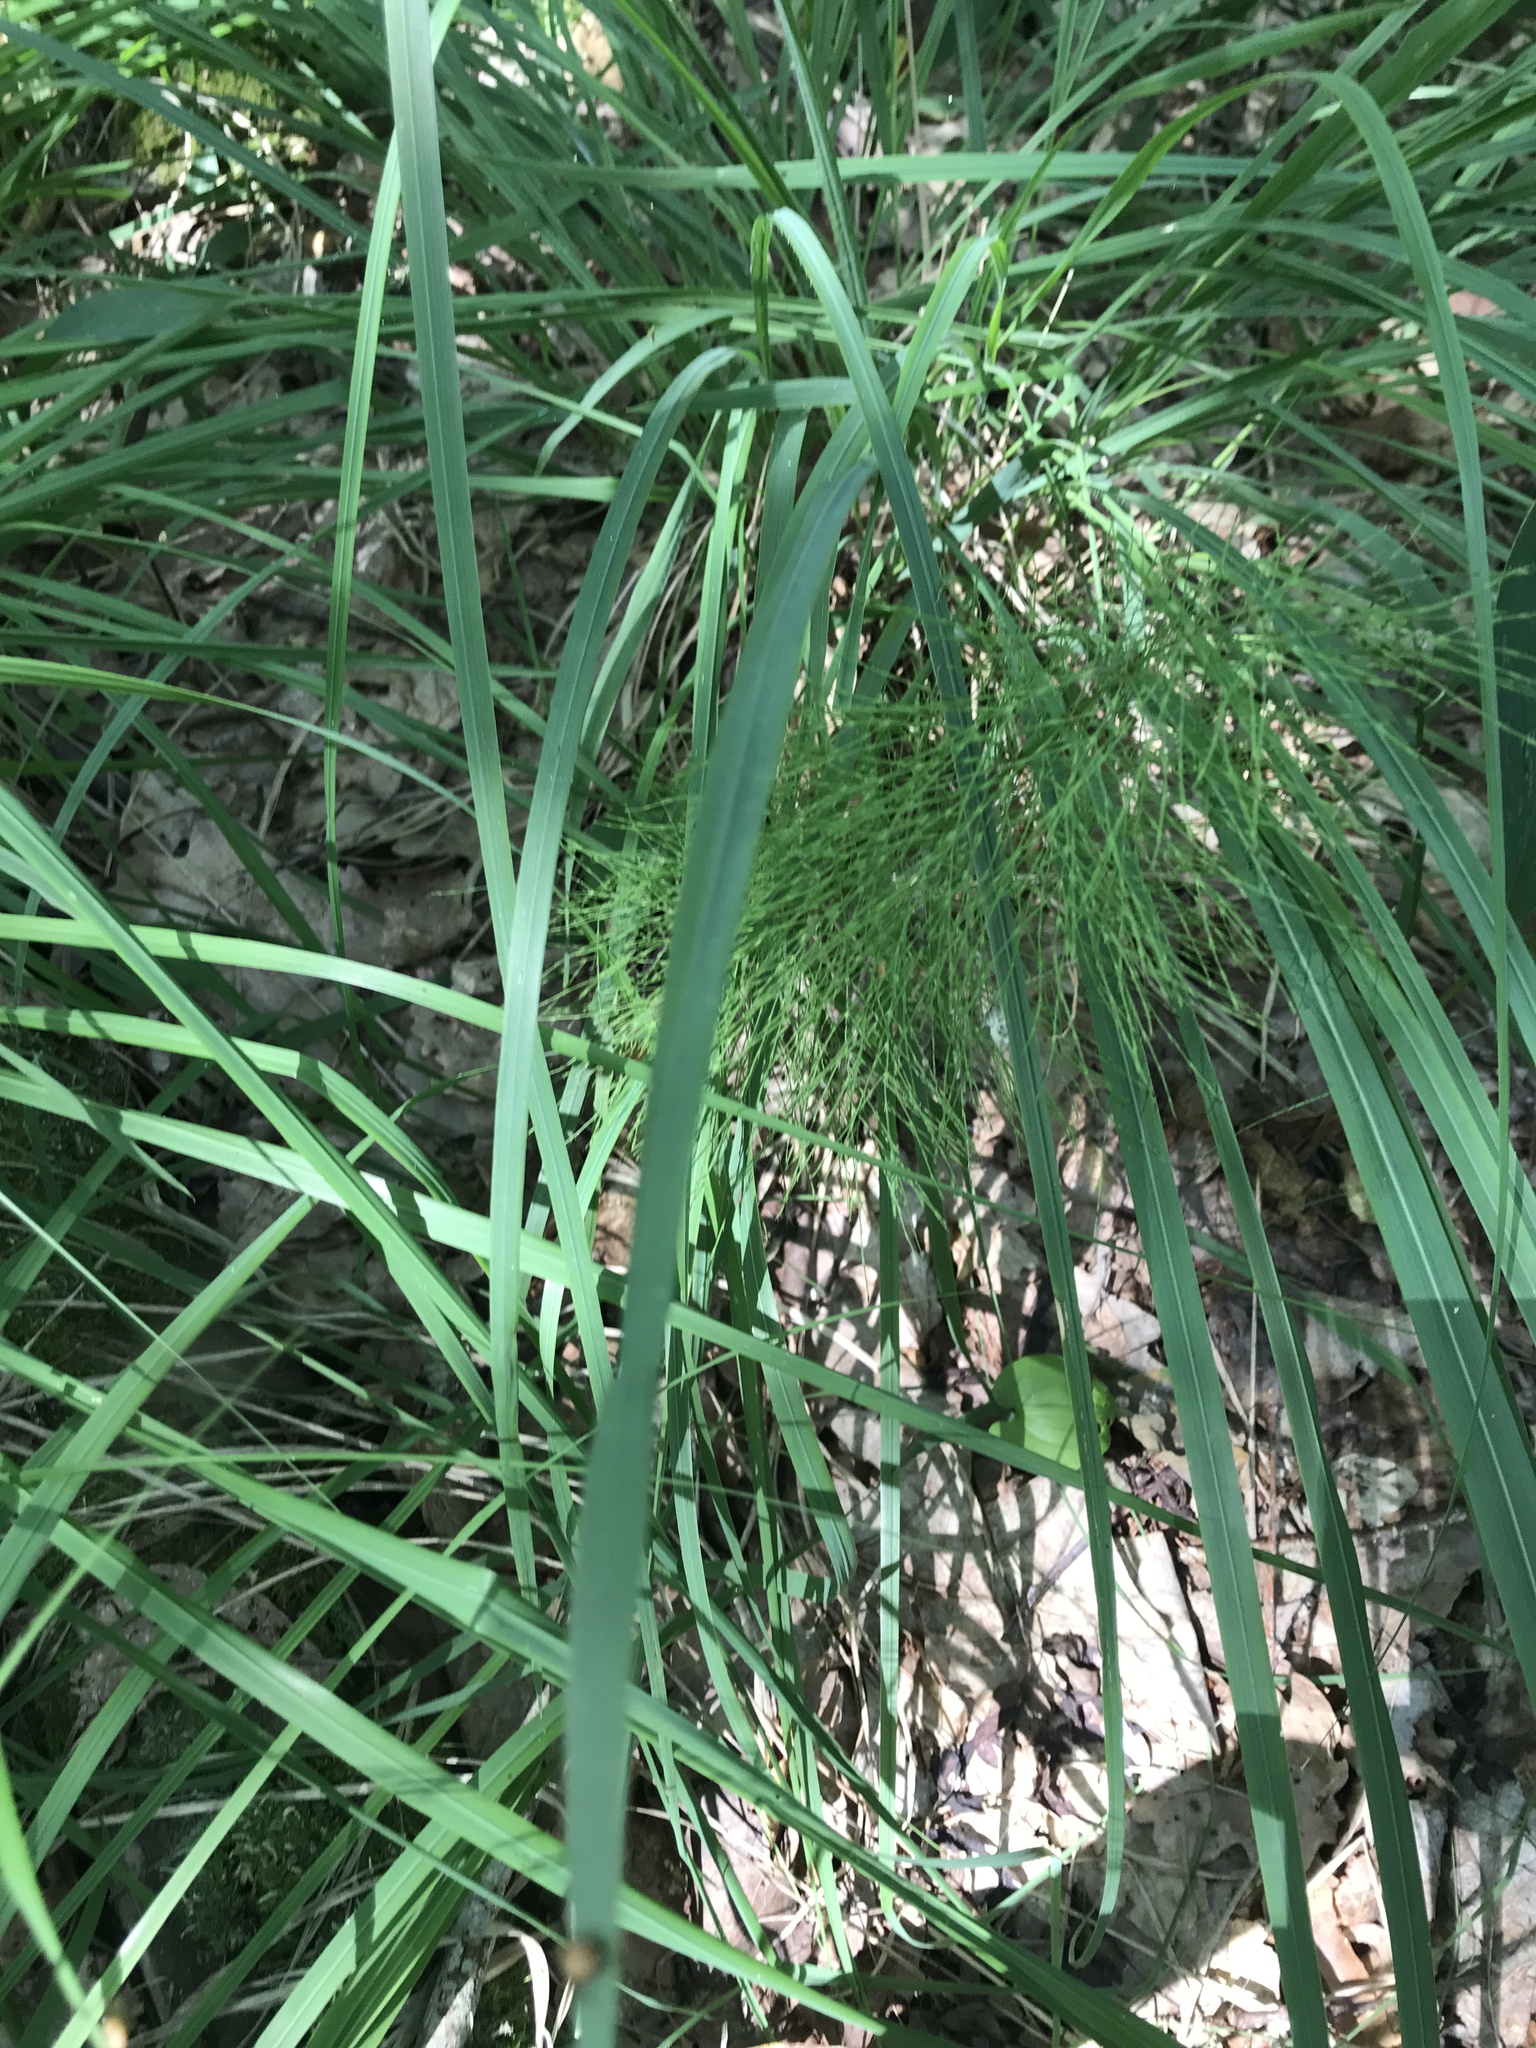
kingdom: Plantae
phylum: Tracheophyta
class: Polypodiopsida
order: Equisetales
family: Equisetaceae
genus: Equisetum
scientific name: Equisetum sylvaticum
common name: Wood horsetail
